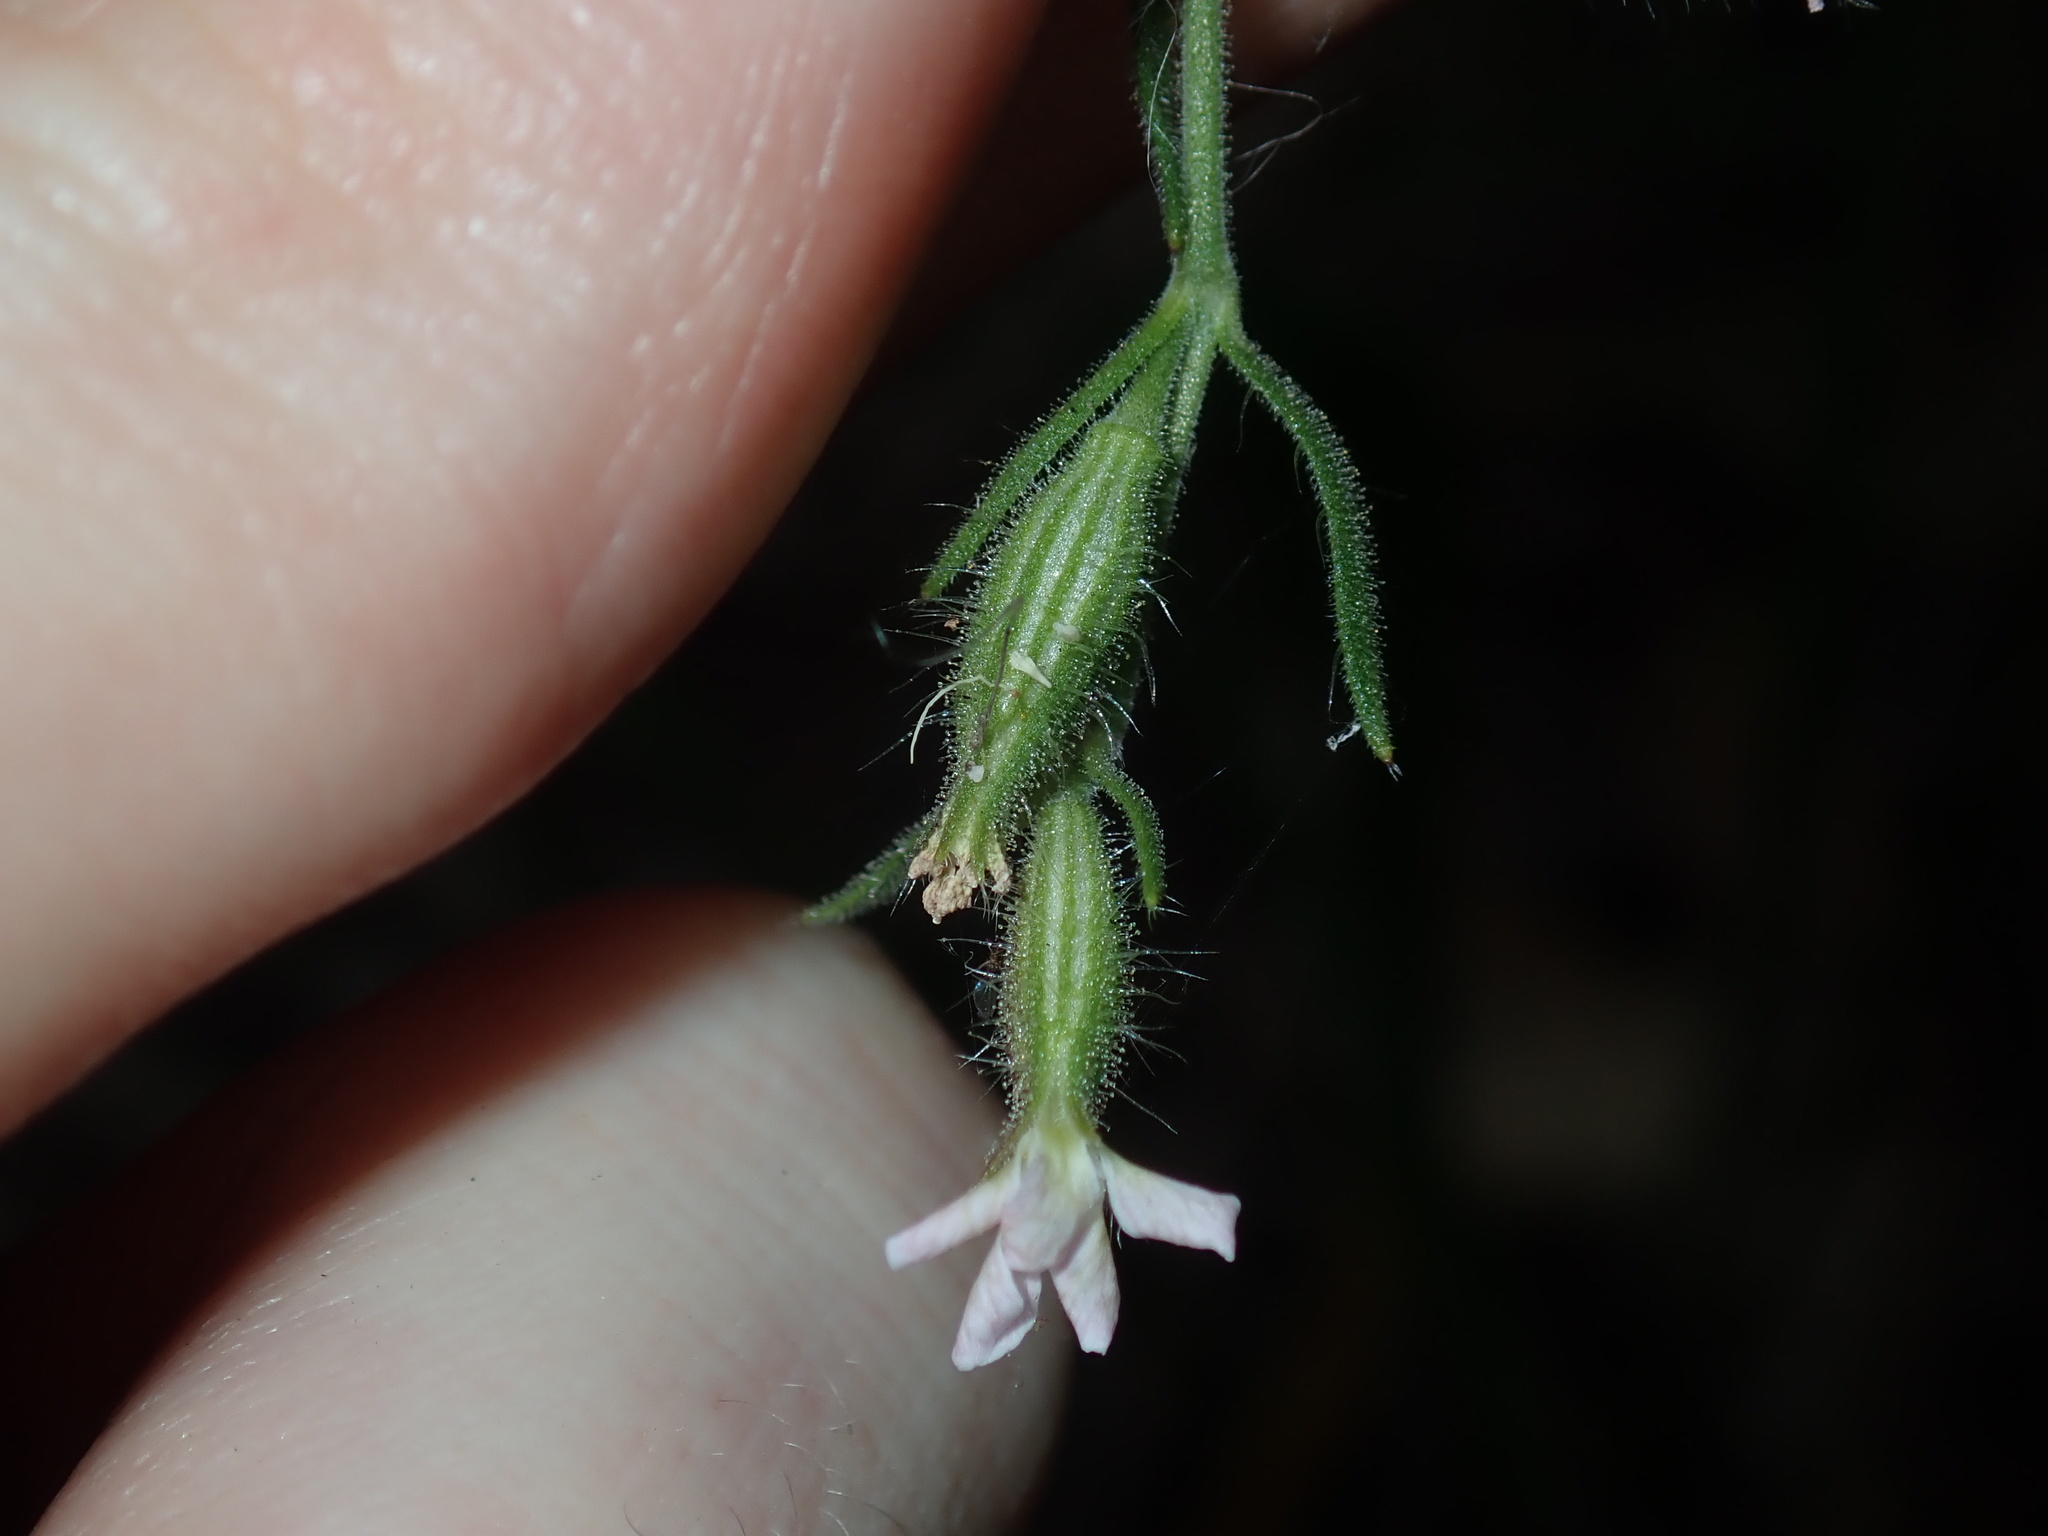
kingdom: Plantae
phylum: Tracheophyta
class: Magnoliopsida
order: Caryophyllales
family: Caryophyllaceae
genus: Silene
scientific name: Silene gallica
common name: Small-flowered catchfly
